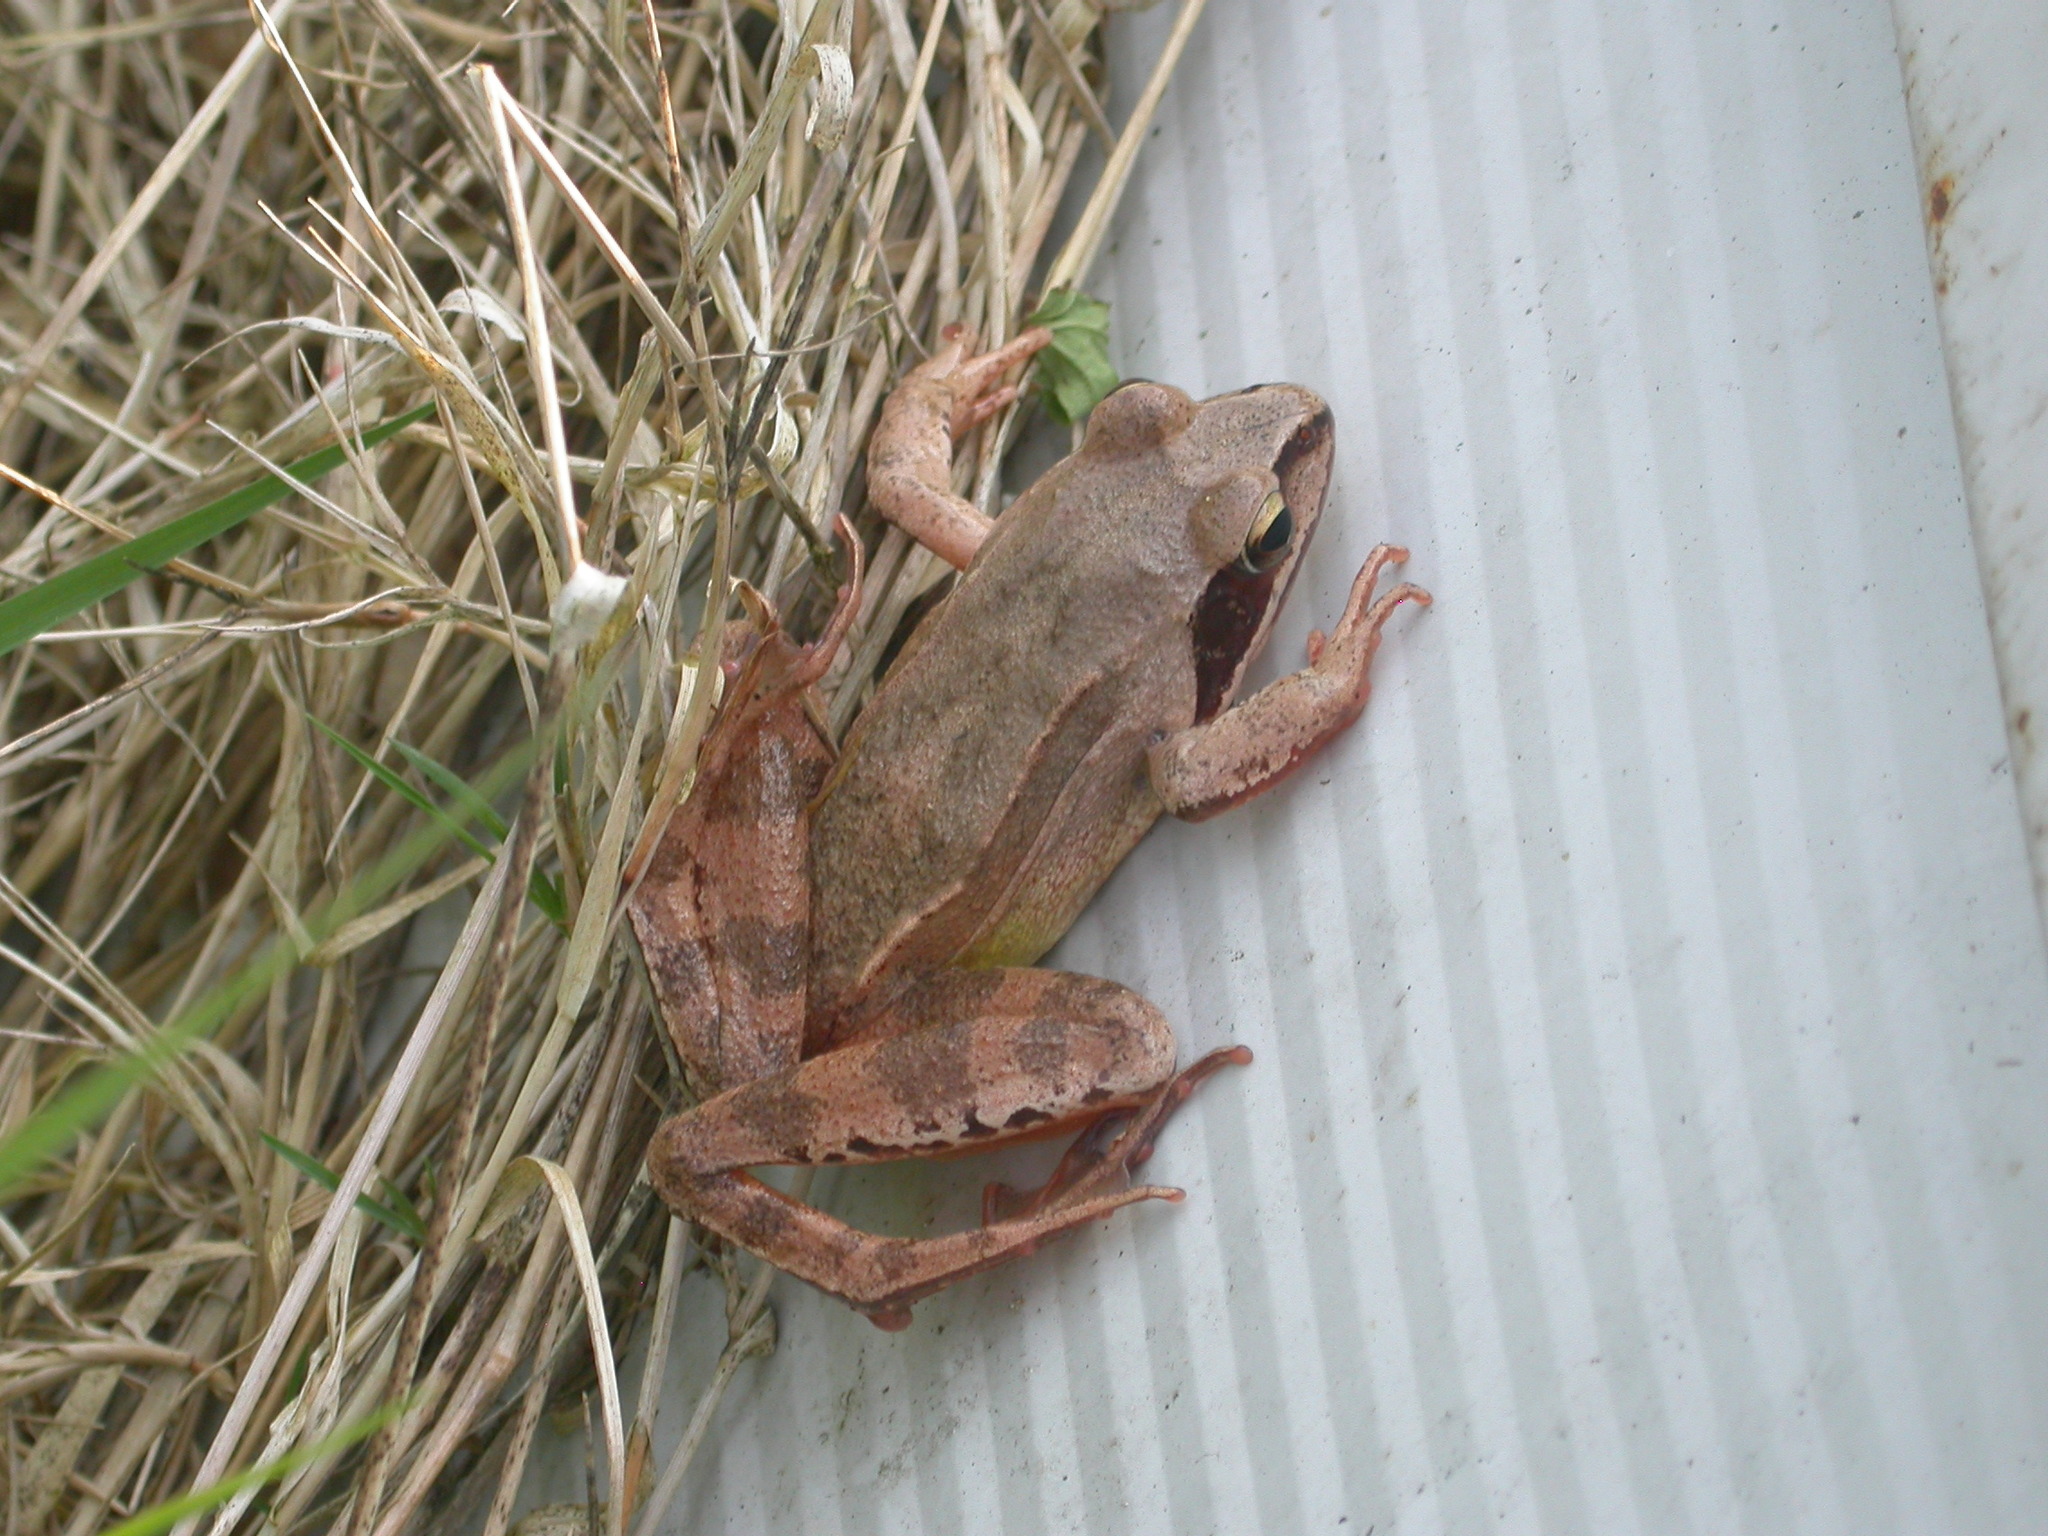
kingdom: Animalia
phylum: Chordata
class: Amphibia
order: Anura
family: Ranidae
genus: Rana
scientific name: Rana dalmatina
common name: Agile frog
